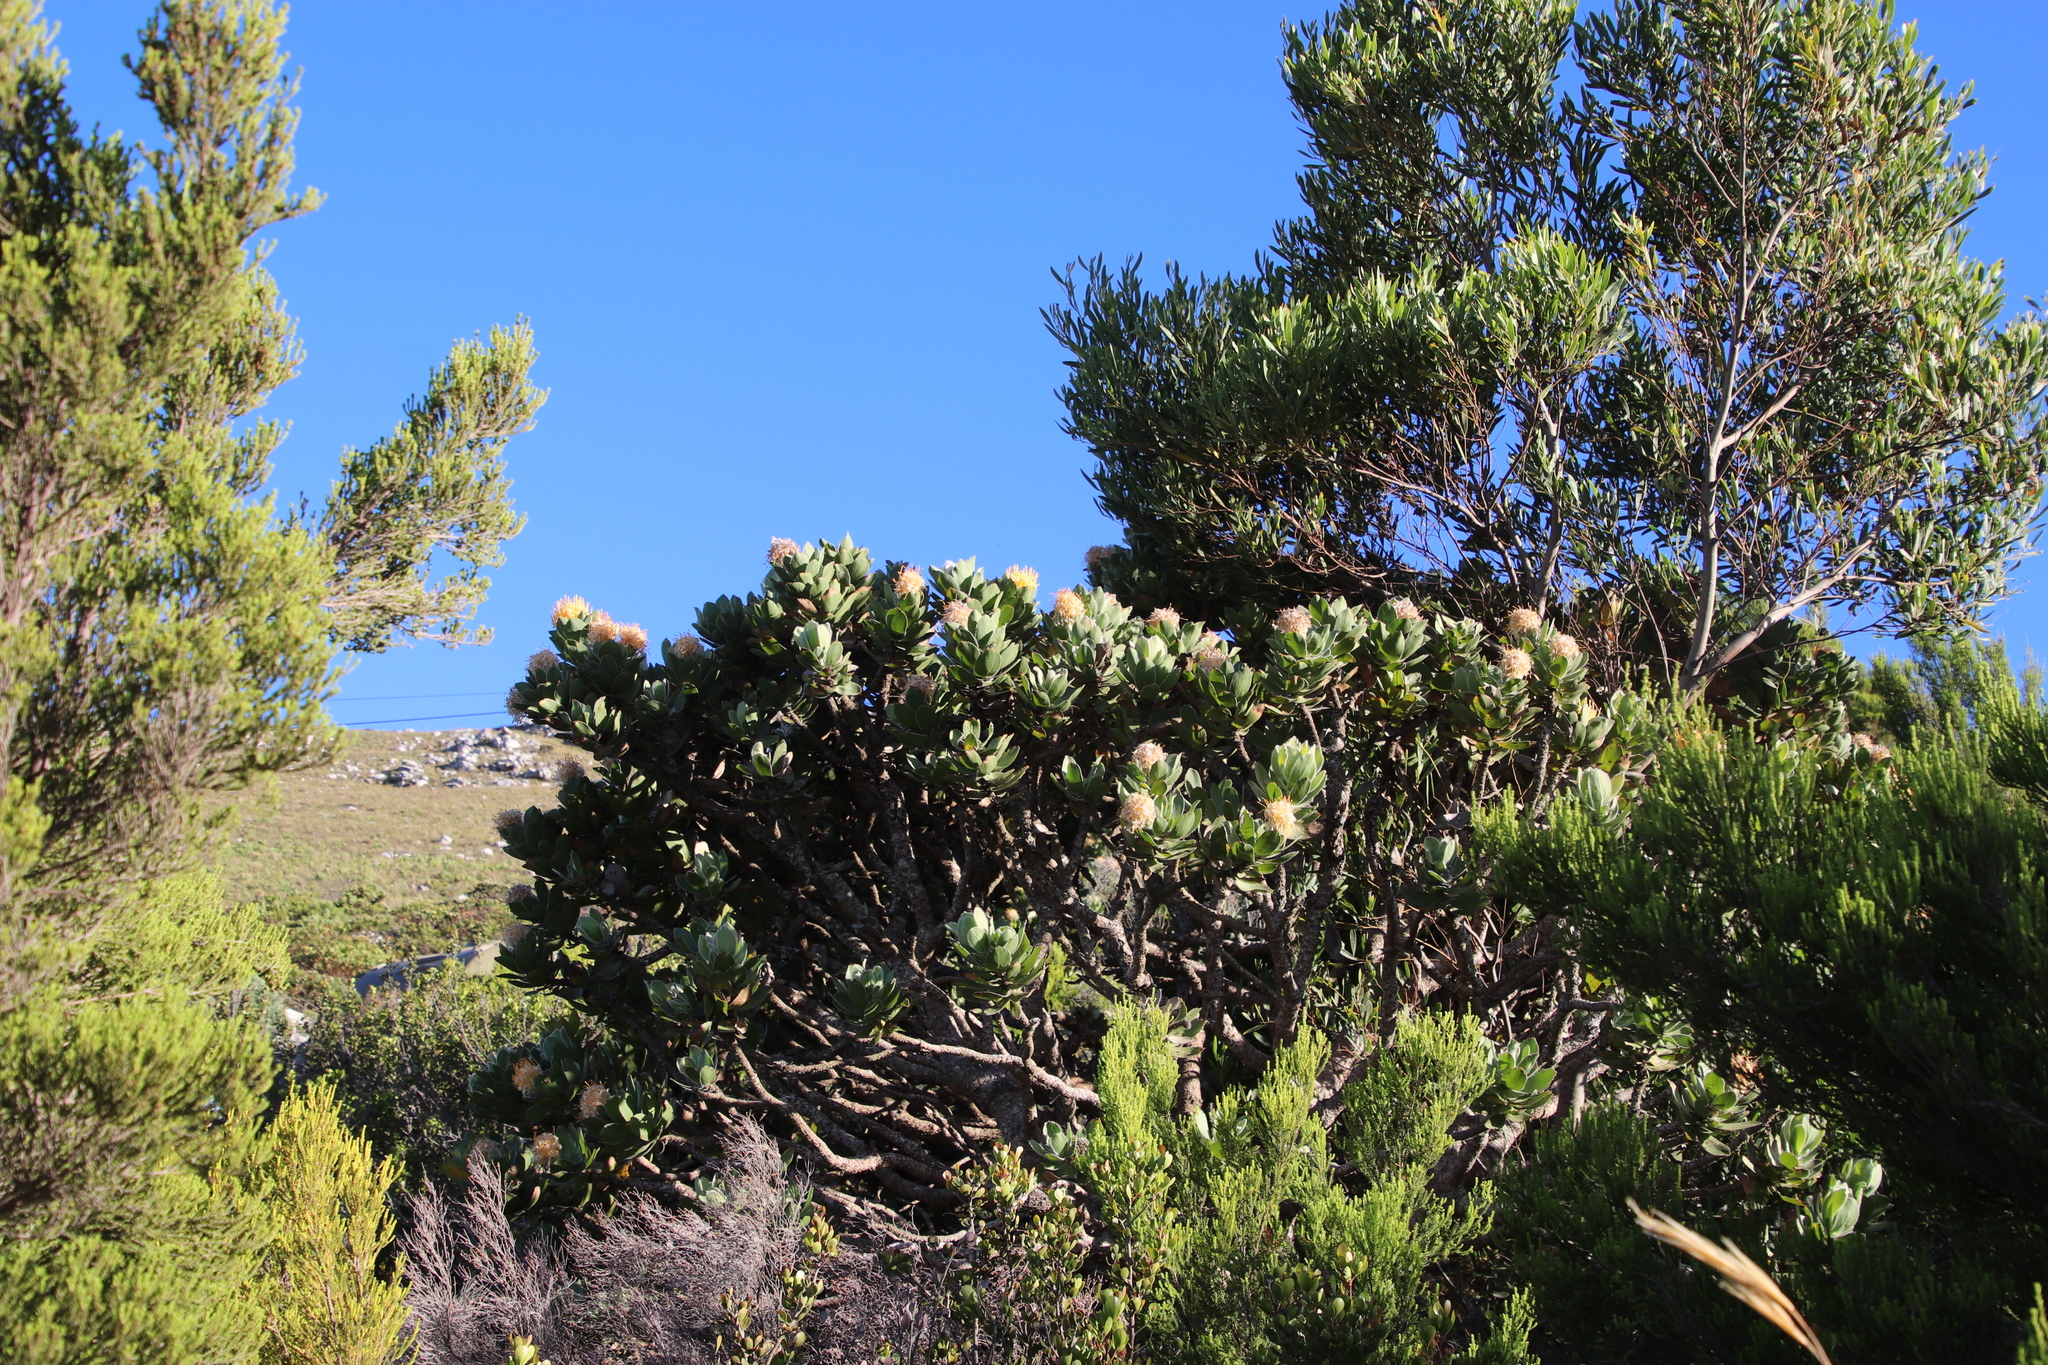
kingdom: Plantae
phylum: Tracheophyta
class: Magnoliopsida
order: Proteales
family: Proteaceae
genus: Leucospermum
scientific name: Leucospermum conocarpodendron
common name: Tree pincushion
